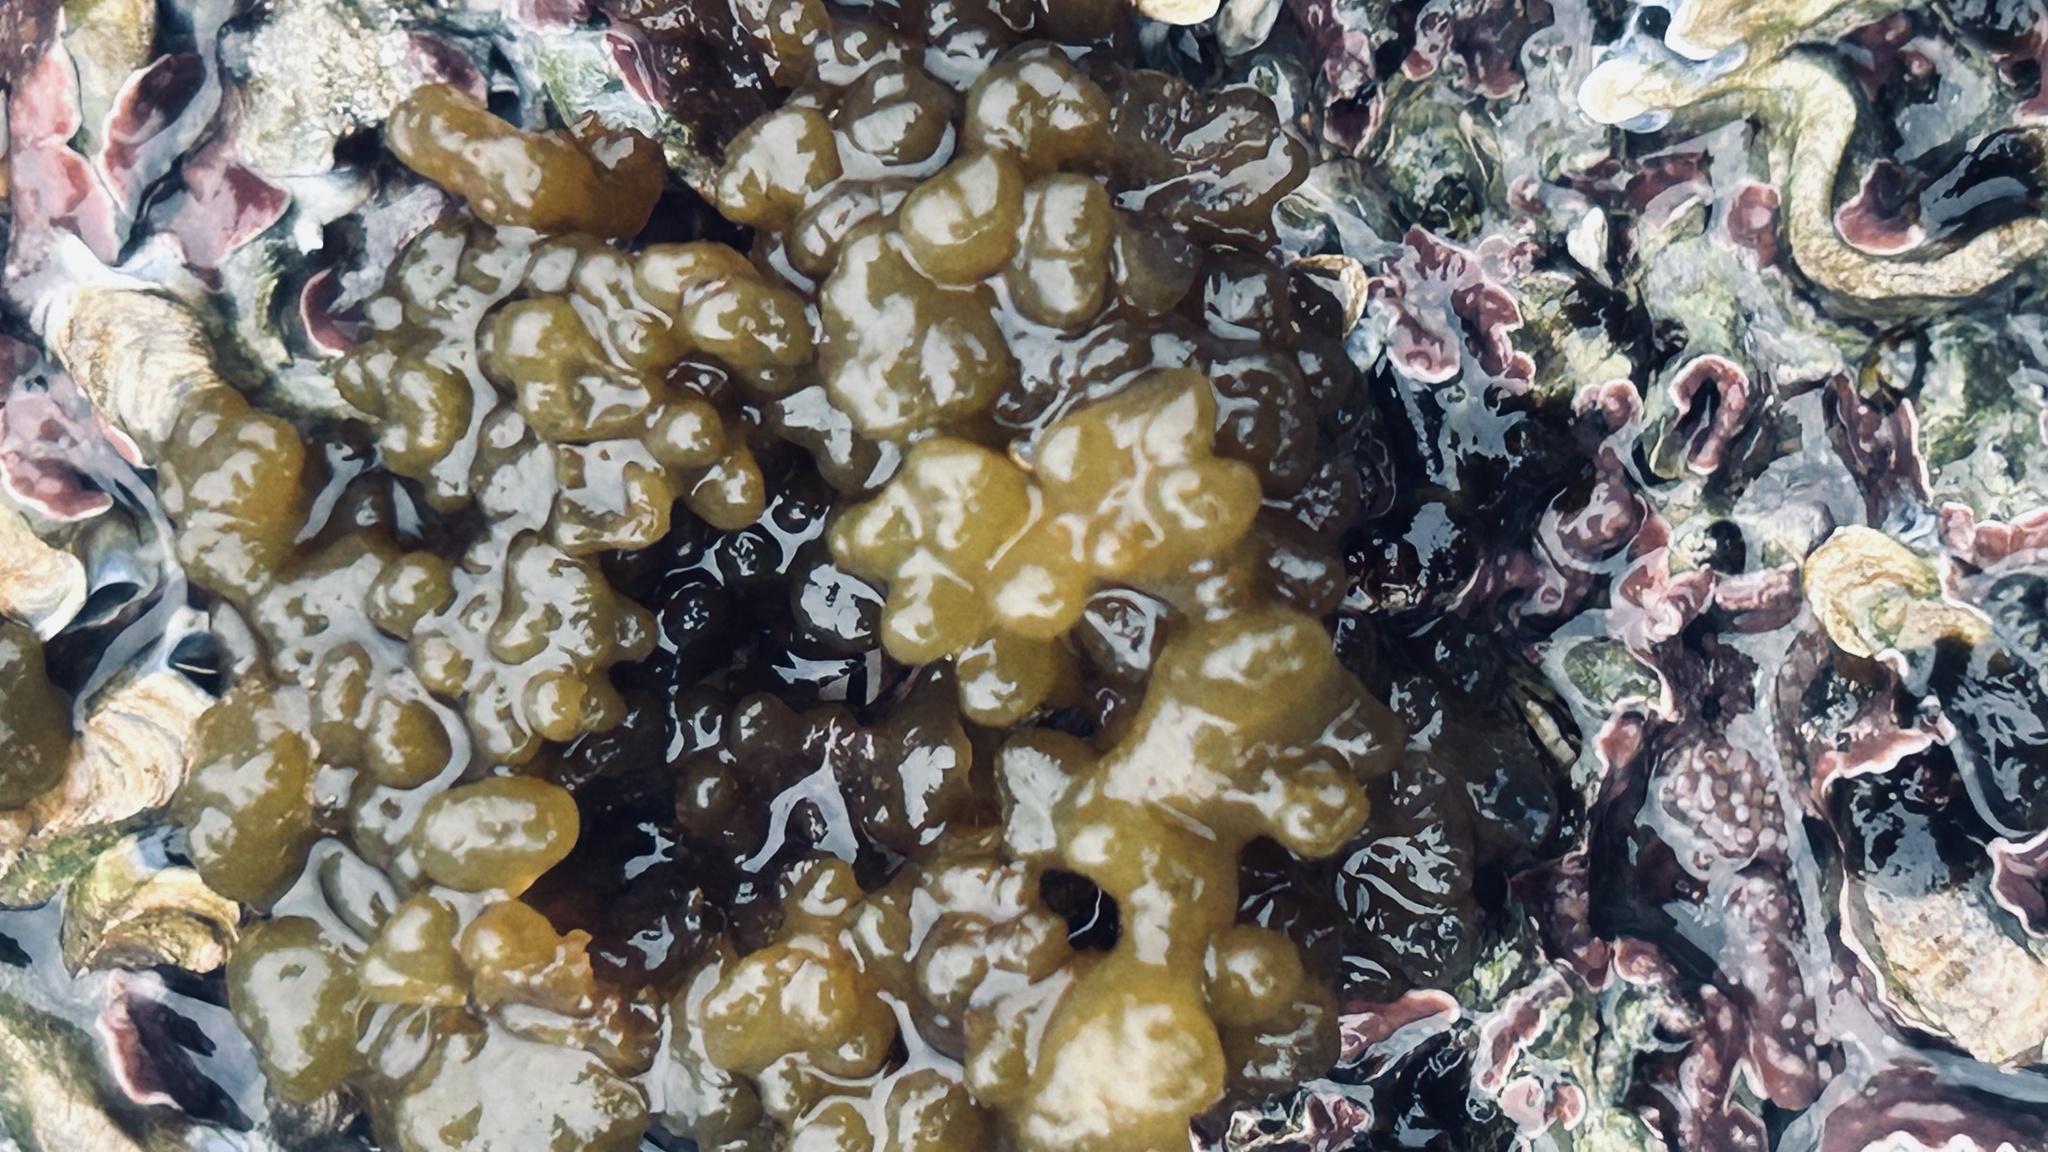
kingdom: Chromista
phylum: Ochrophyta
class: Phaeophyceae
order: Scytosiphonales
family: Scytosiphonaceae
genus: Iyengaria
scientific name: Iyengaria
